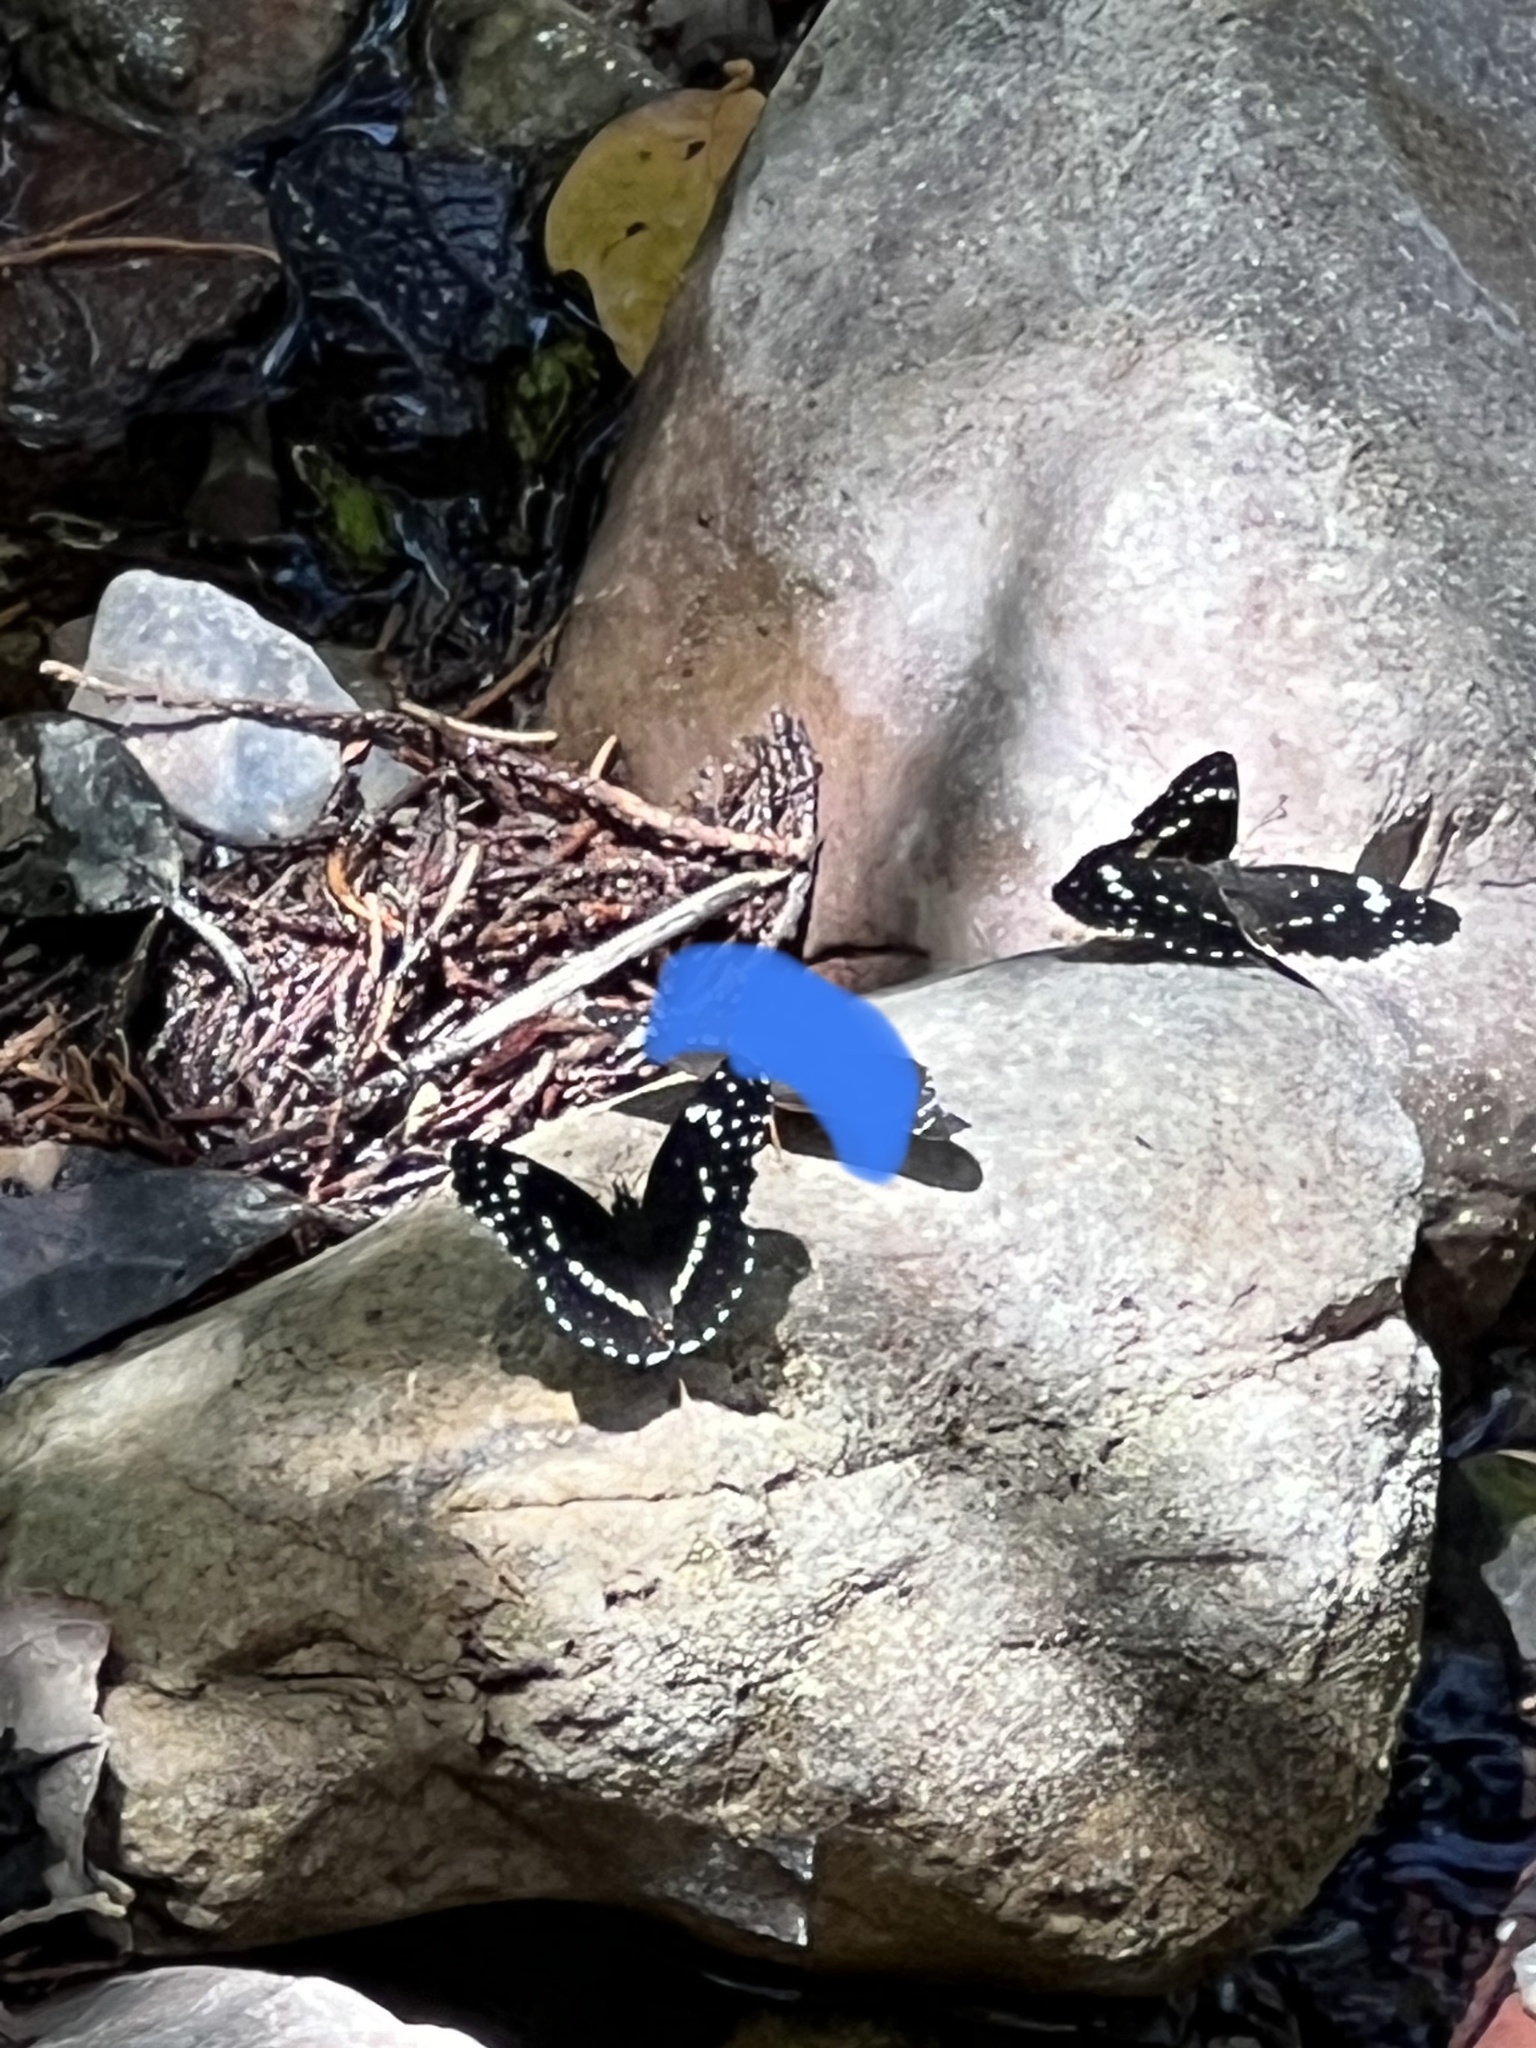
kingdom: Animalia
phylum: Arthropoda
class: Insecta
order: Lepidoptera
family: Nymphalidae
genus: Chlosyne
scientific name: Chlosyne lacinia
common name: Bordered patch
